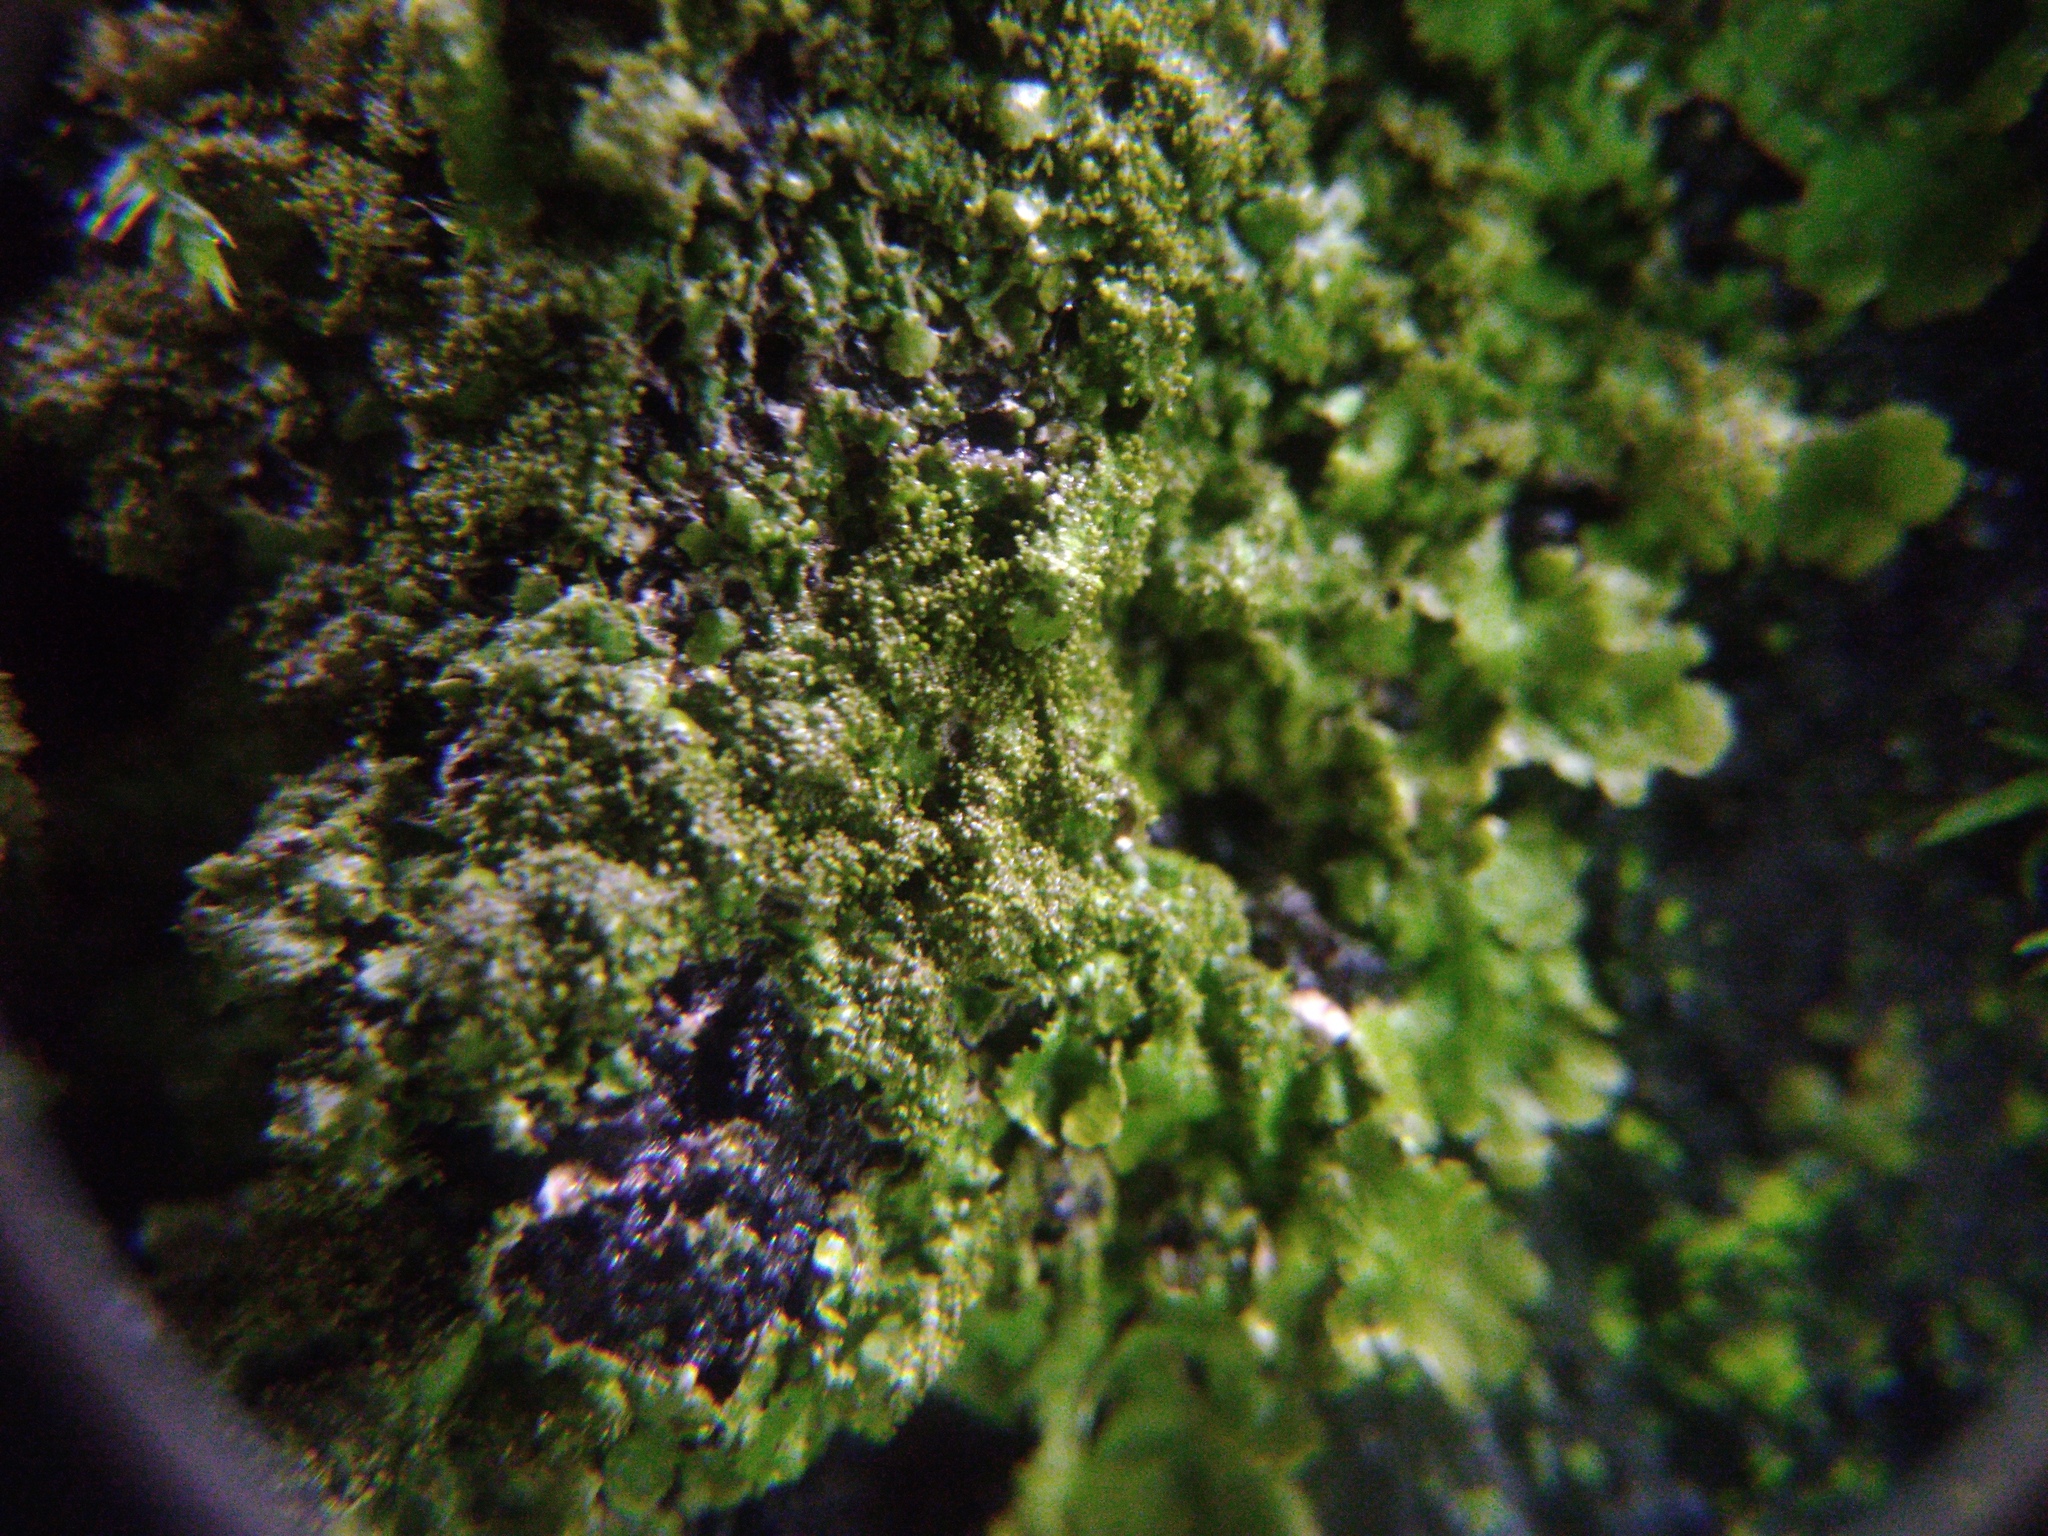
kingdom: Fungi
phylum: Ascomycota
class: Lecanoromycetes
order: Lecanorales
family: Parmeliaceae
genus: Melanelixia
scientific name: Melanelixia glabratula
